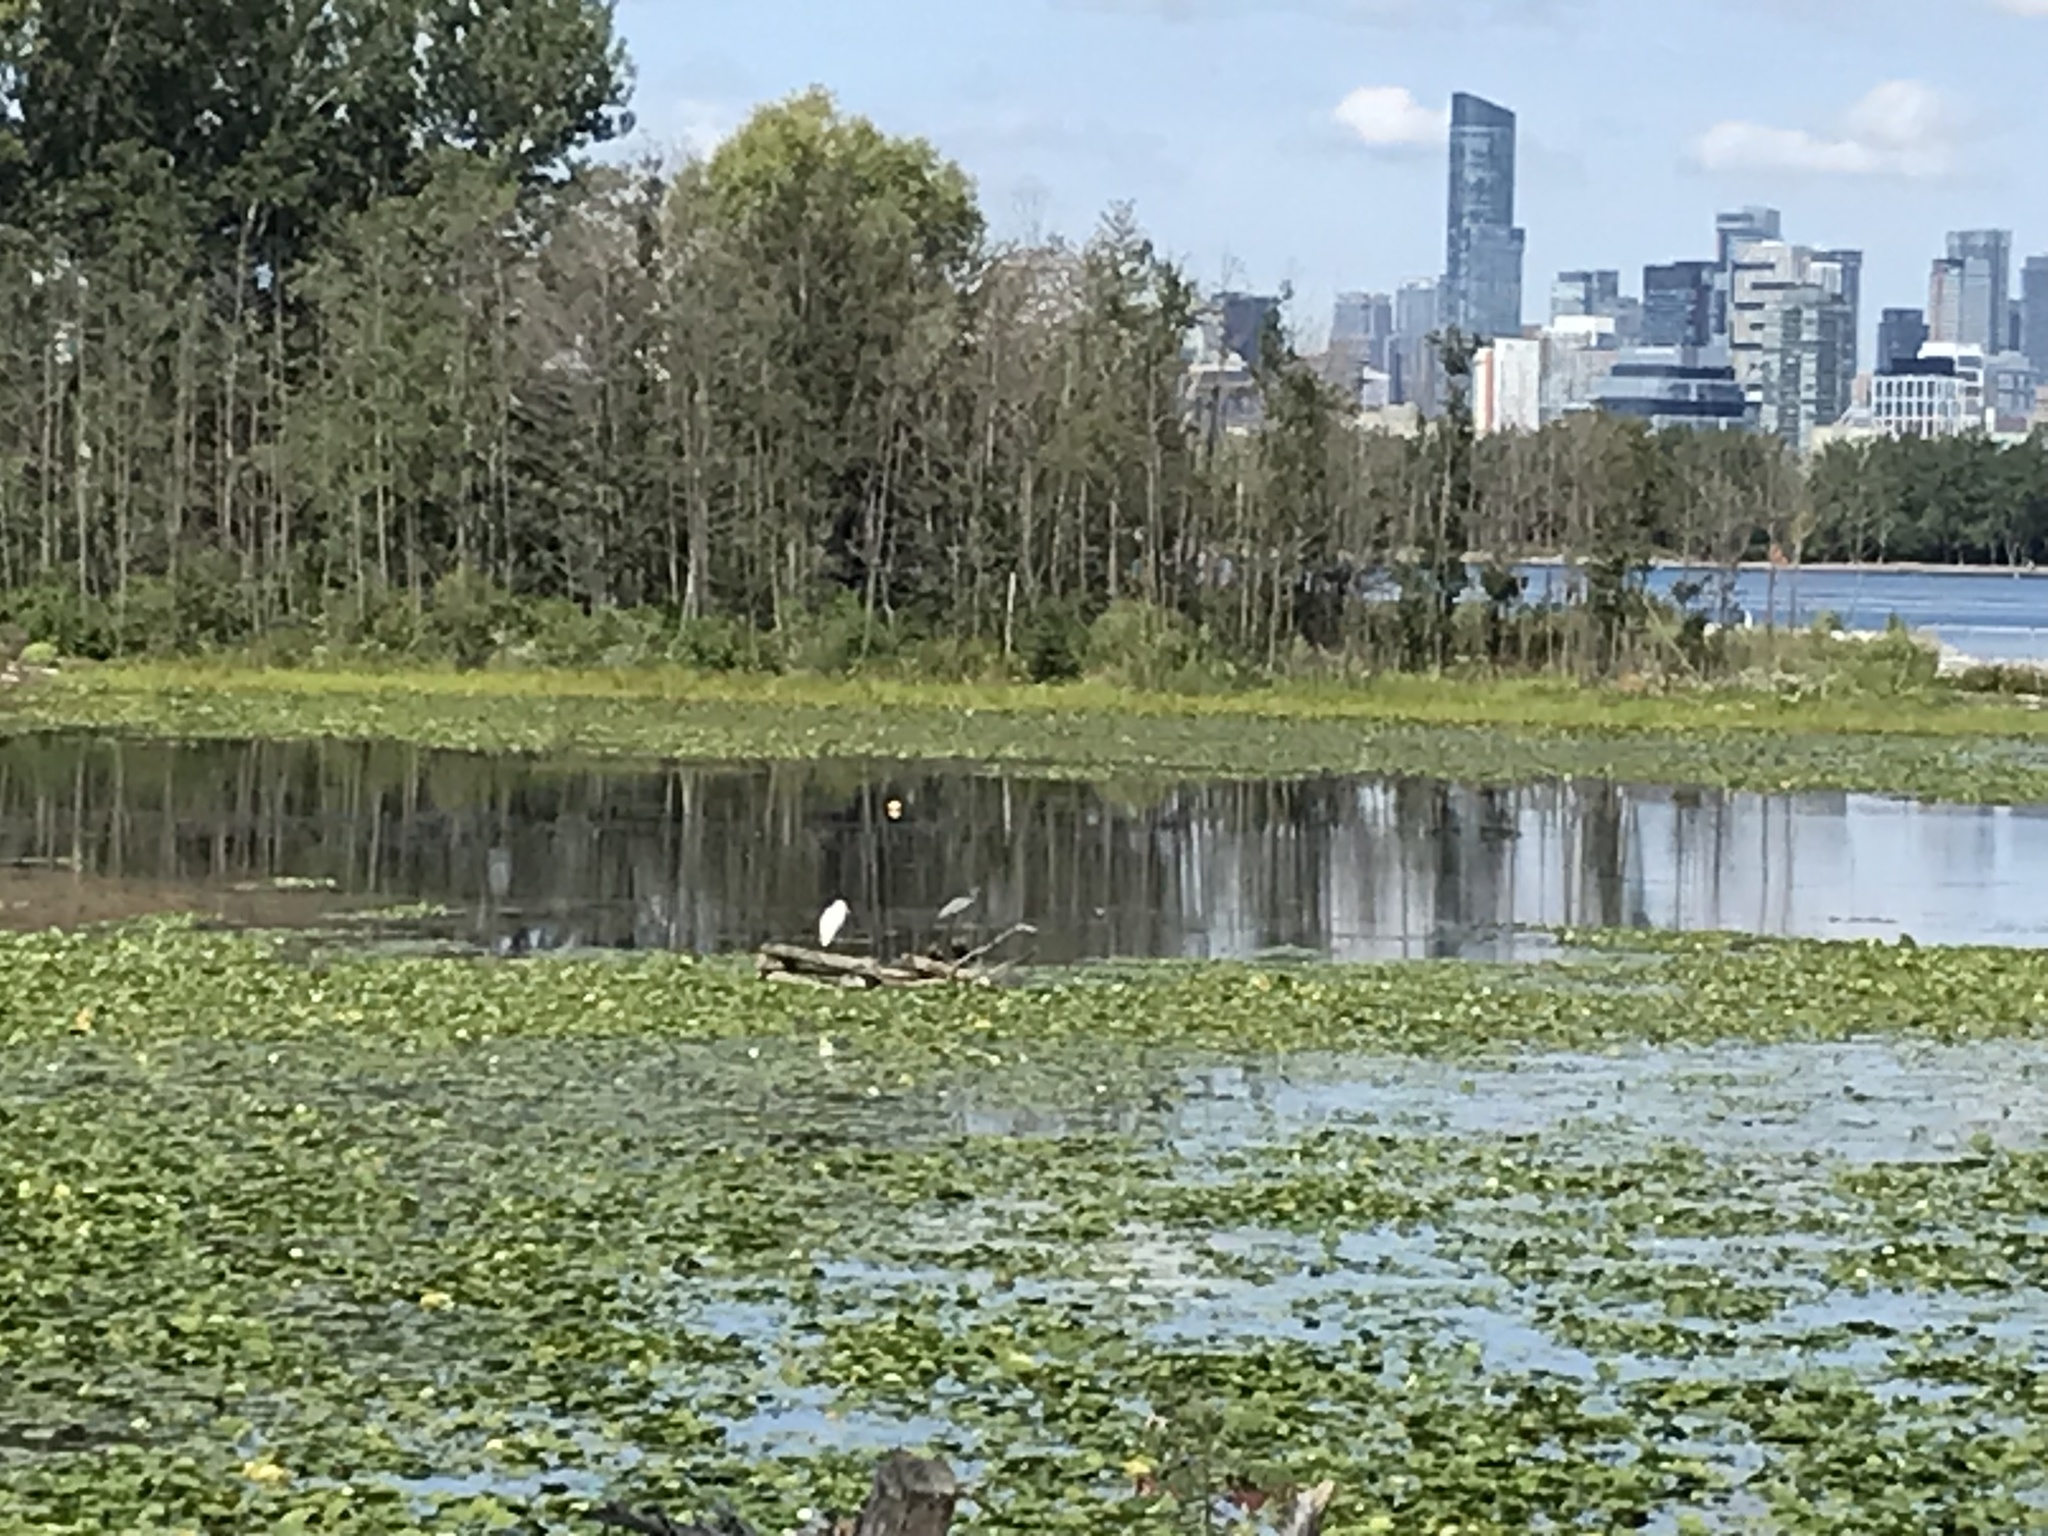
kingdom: Animalia
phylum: Chordata
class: Aves
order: Pelecaniformes
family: Ardeidae
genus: Ardea
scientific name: Ardea alba
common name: Great egret
